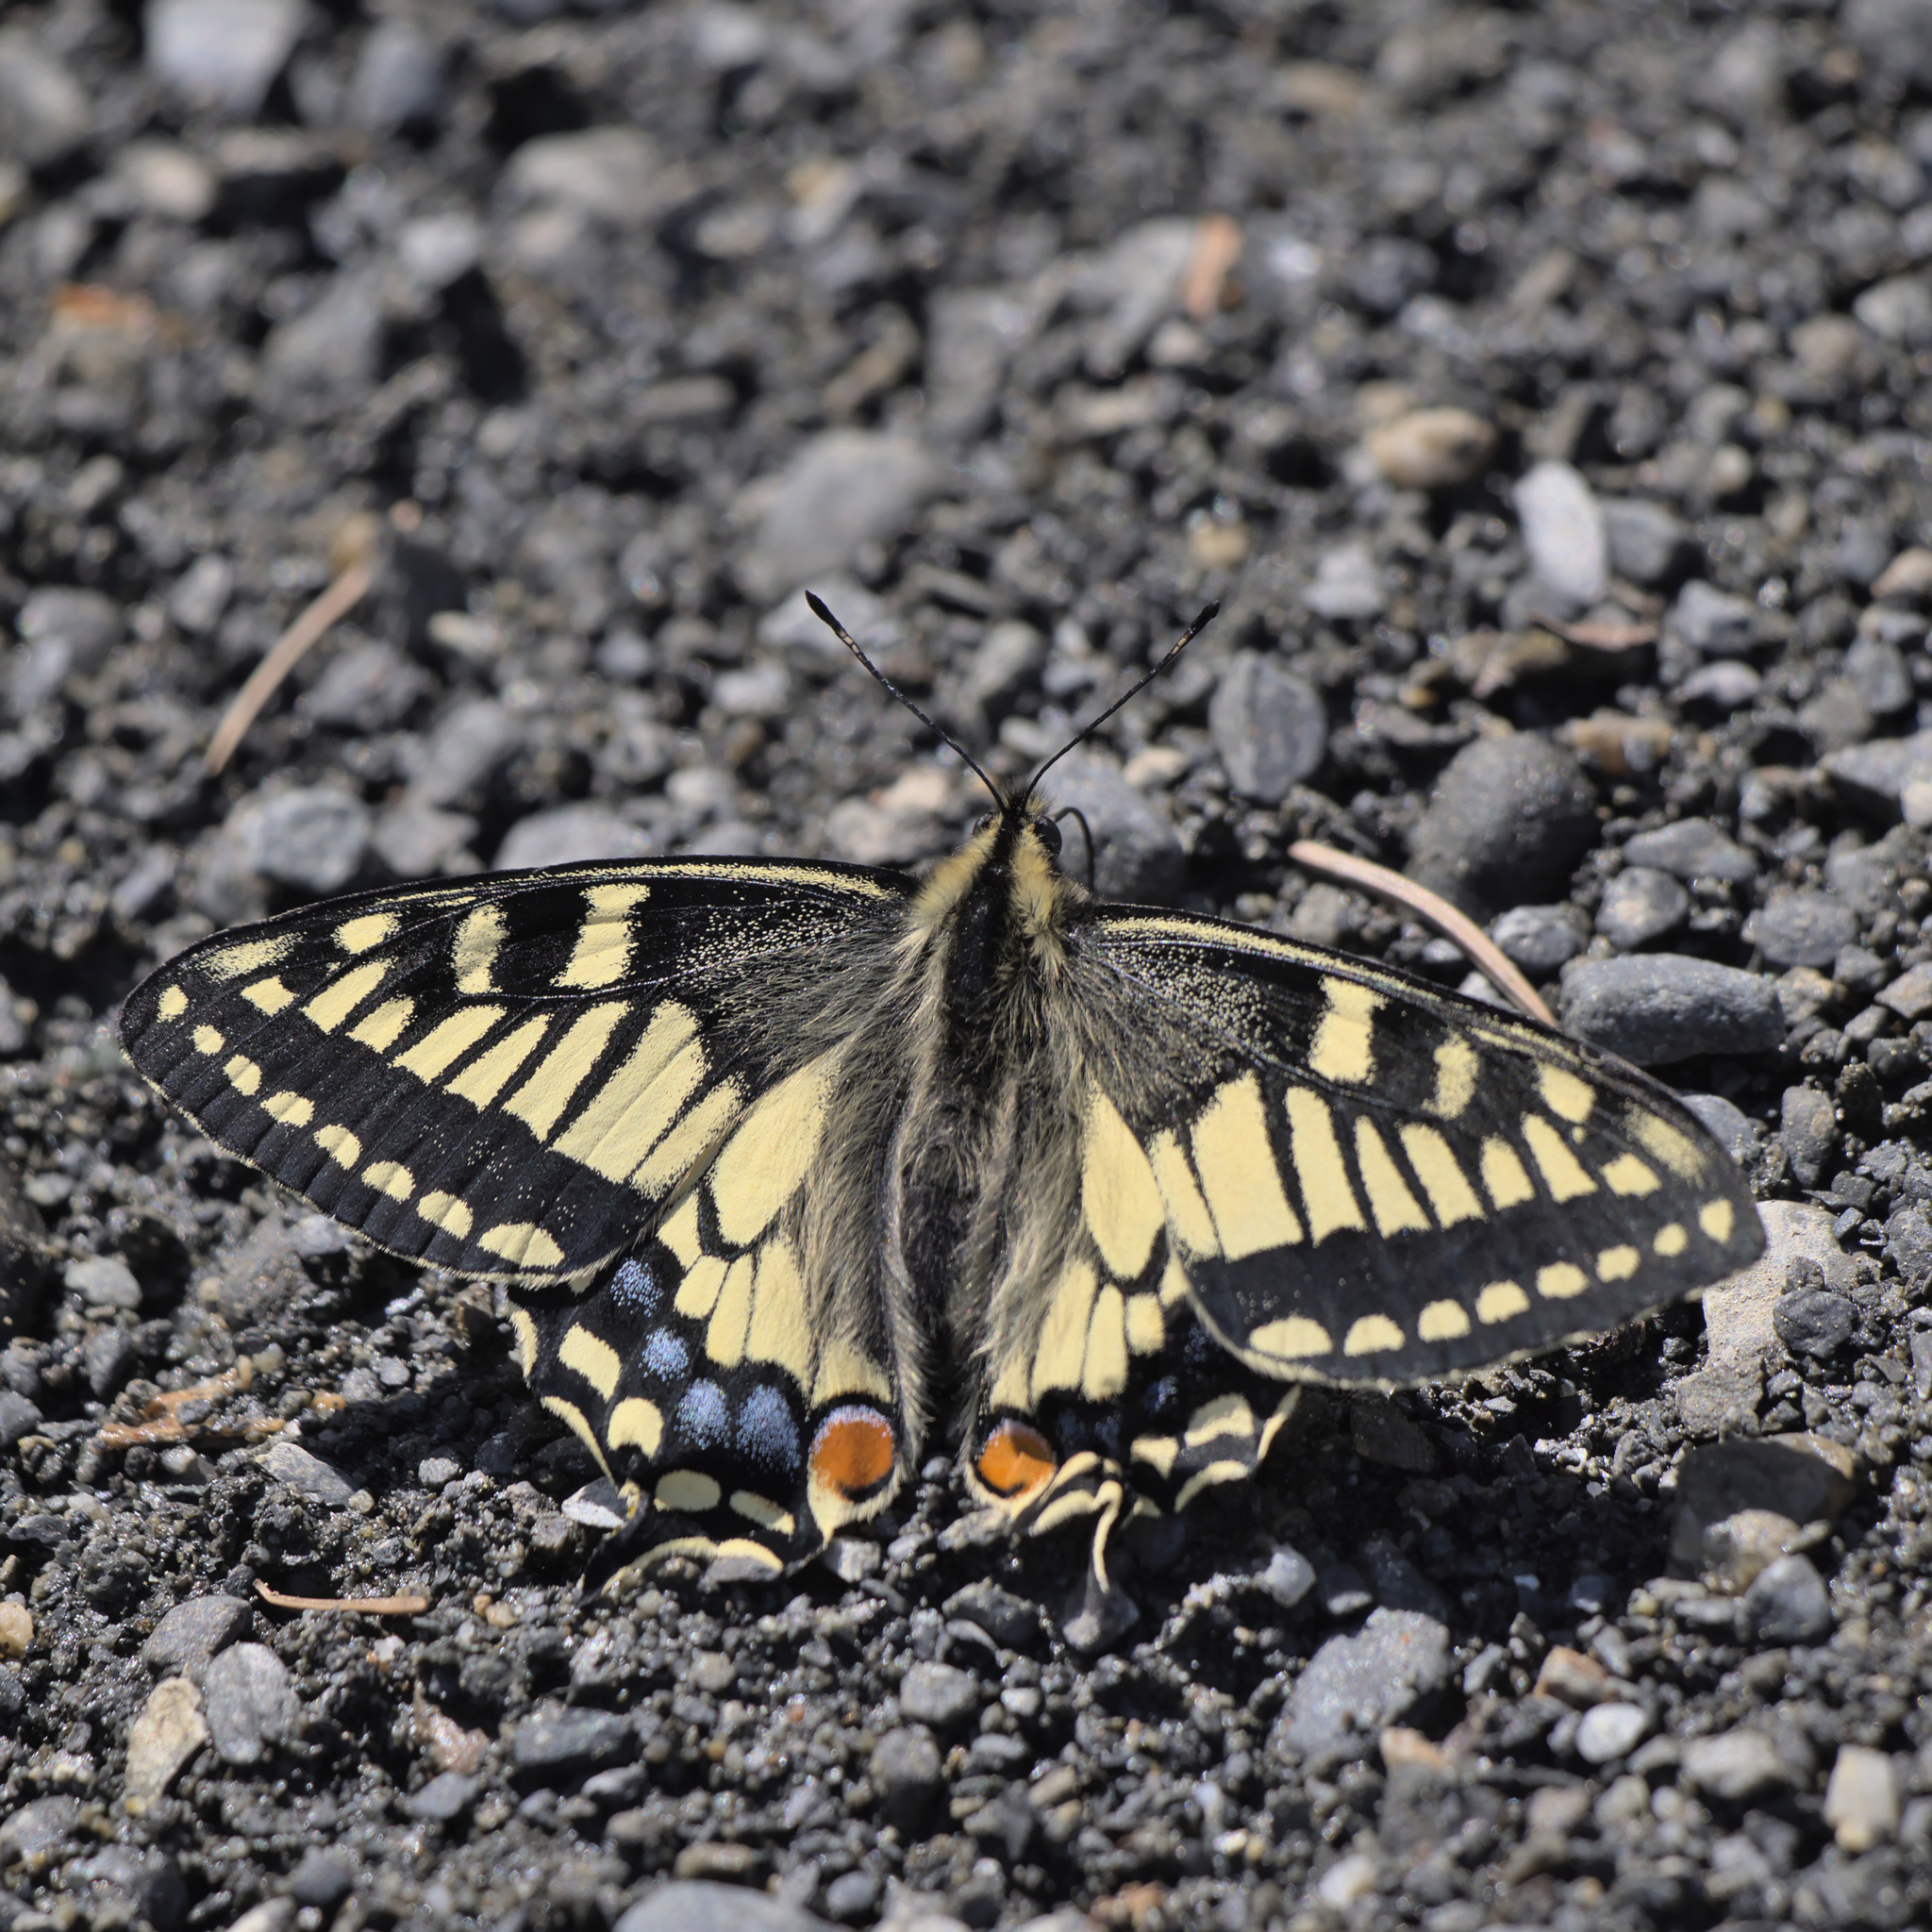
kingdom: Animalia
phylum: Arthropoda
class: Insecta
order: Lepidoptera
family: Papilionidae
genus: Papilio
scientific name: Papilio machaon
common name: Swallowtail
